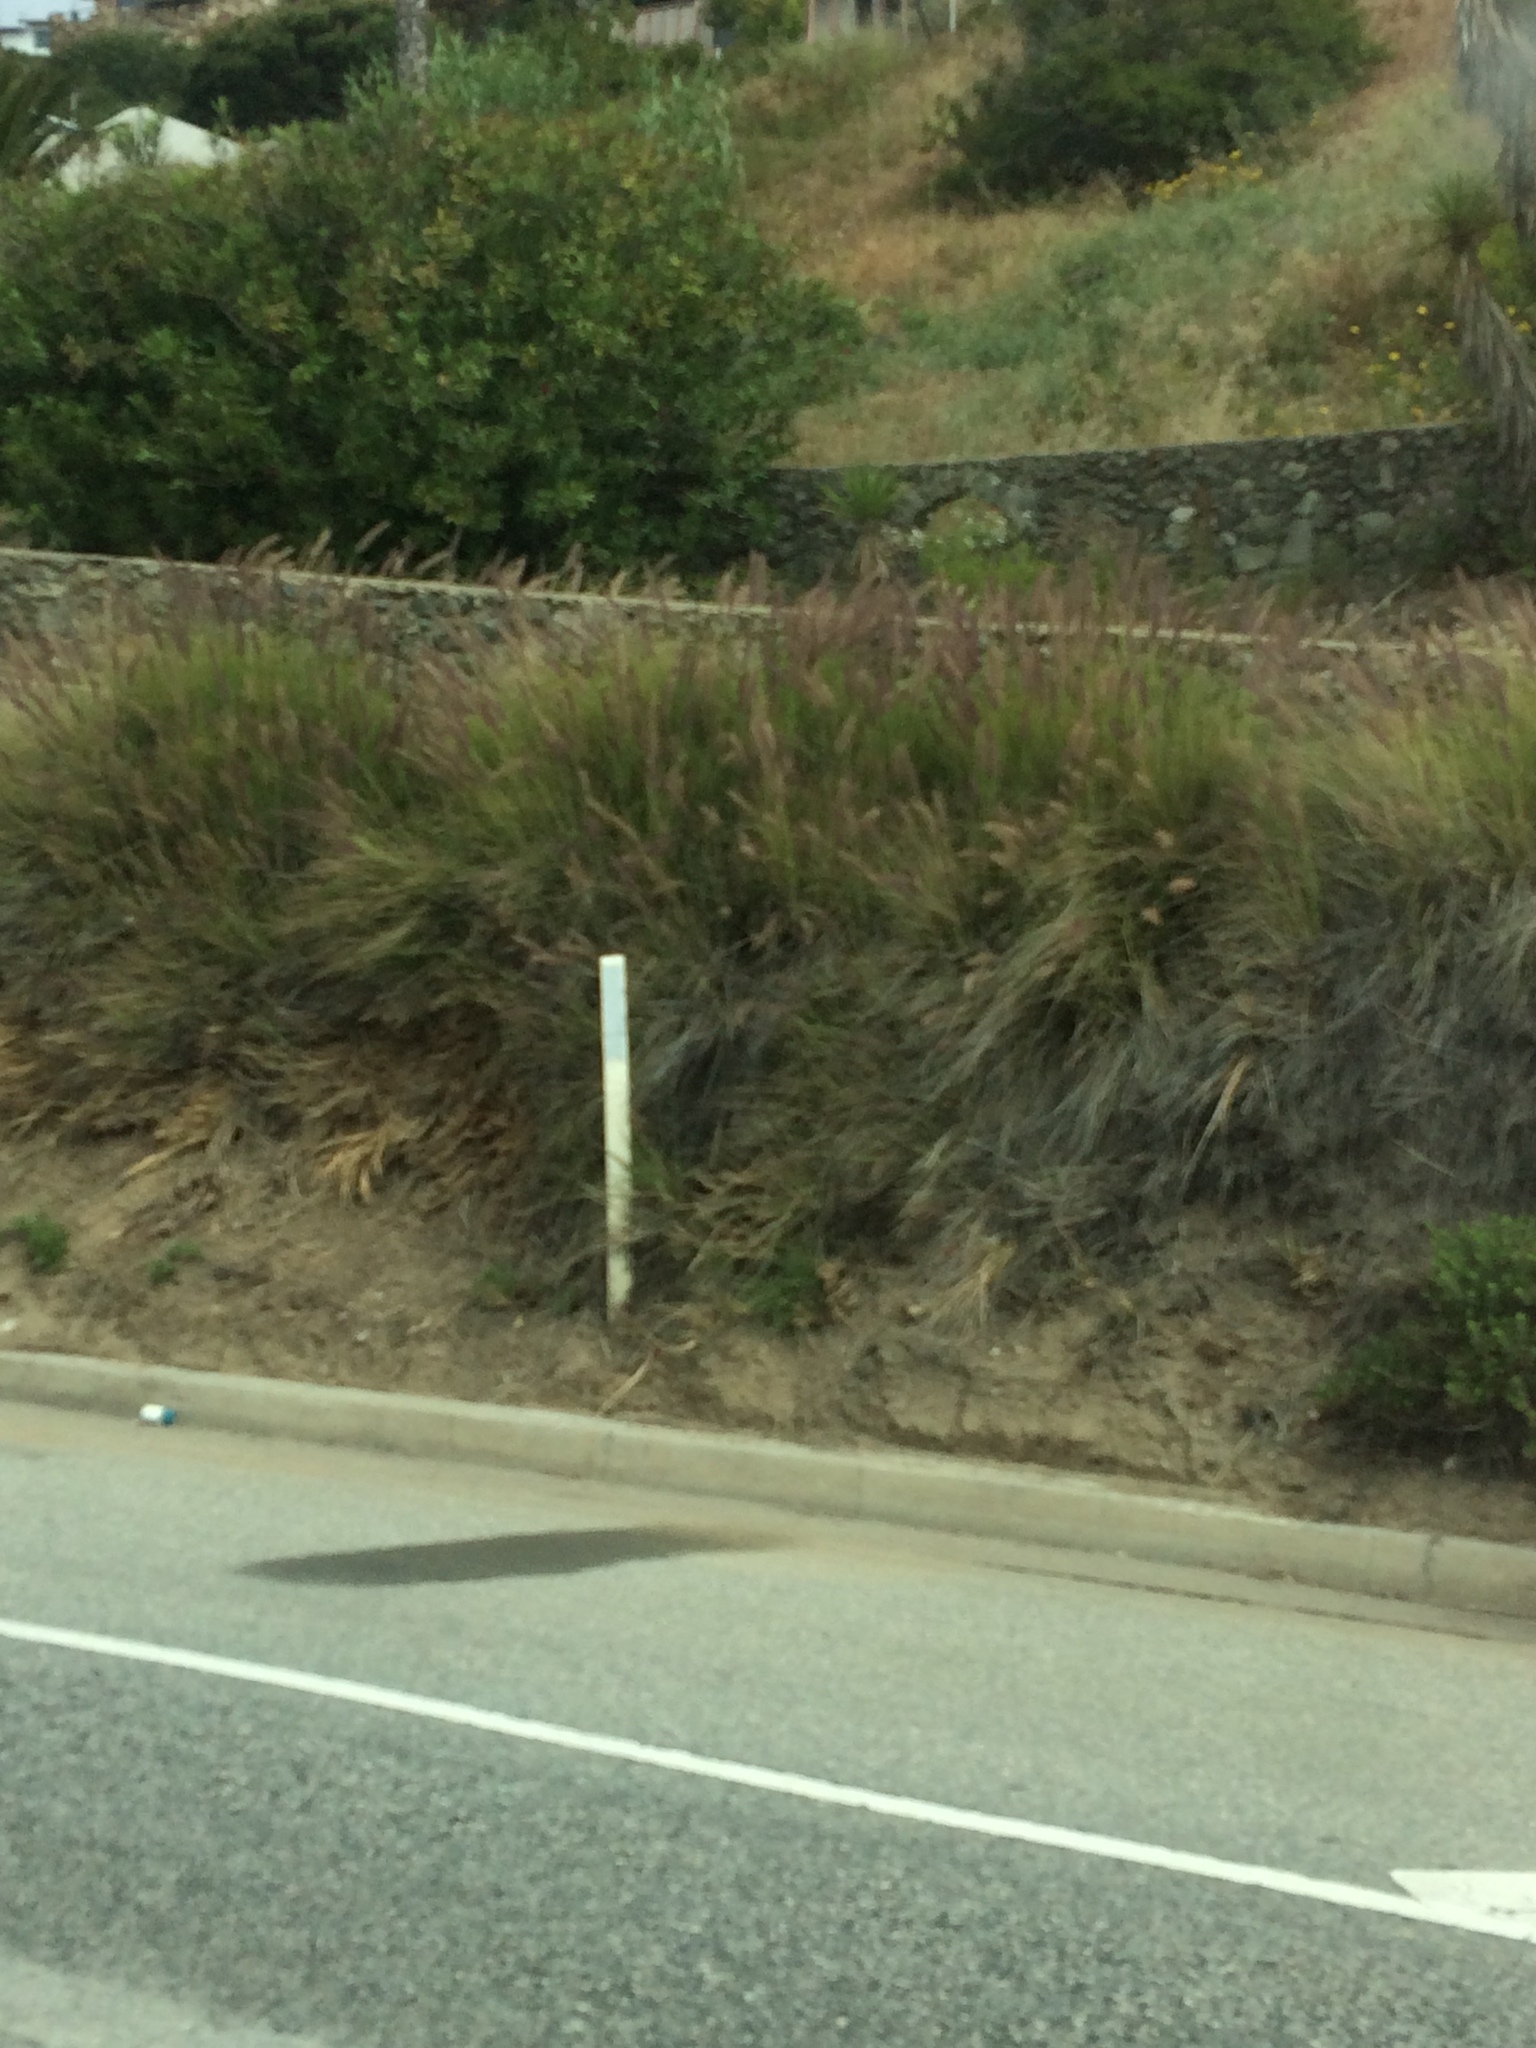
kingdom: Plantae
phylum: Tracheophyta
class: Liliopsida
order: Poales
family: Poaceae
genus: Cenchrus
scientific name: Cenchrus setaceus
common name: Crimson fountaingrass
